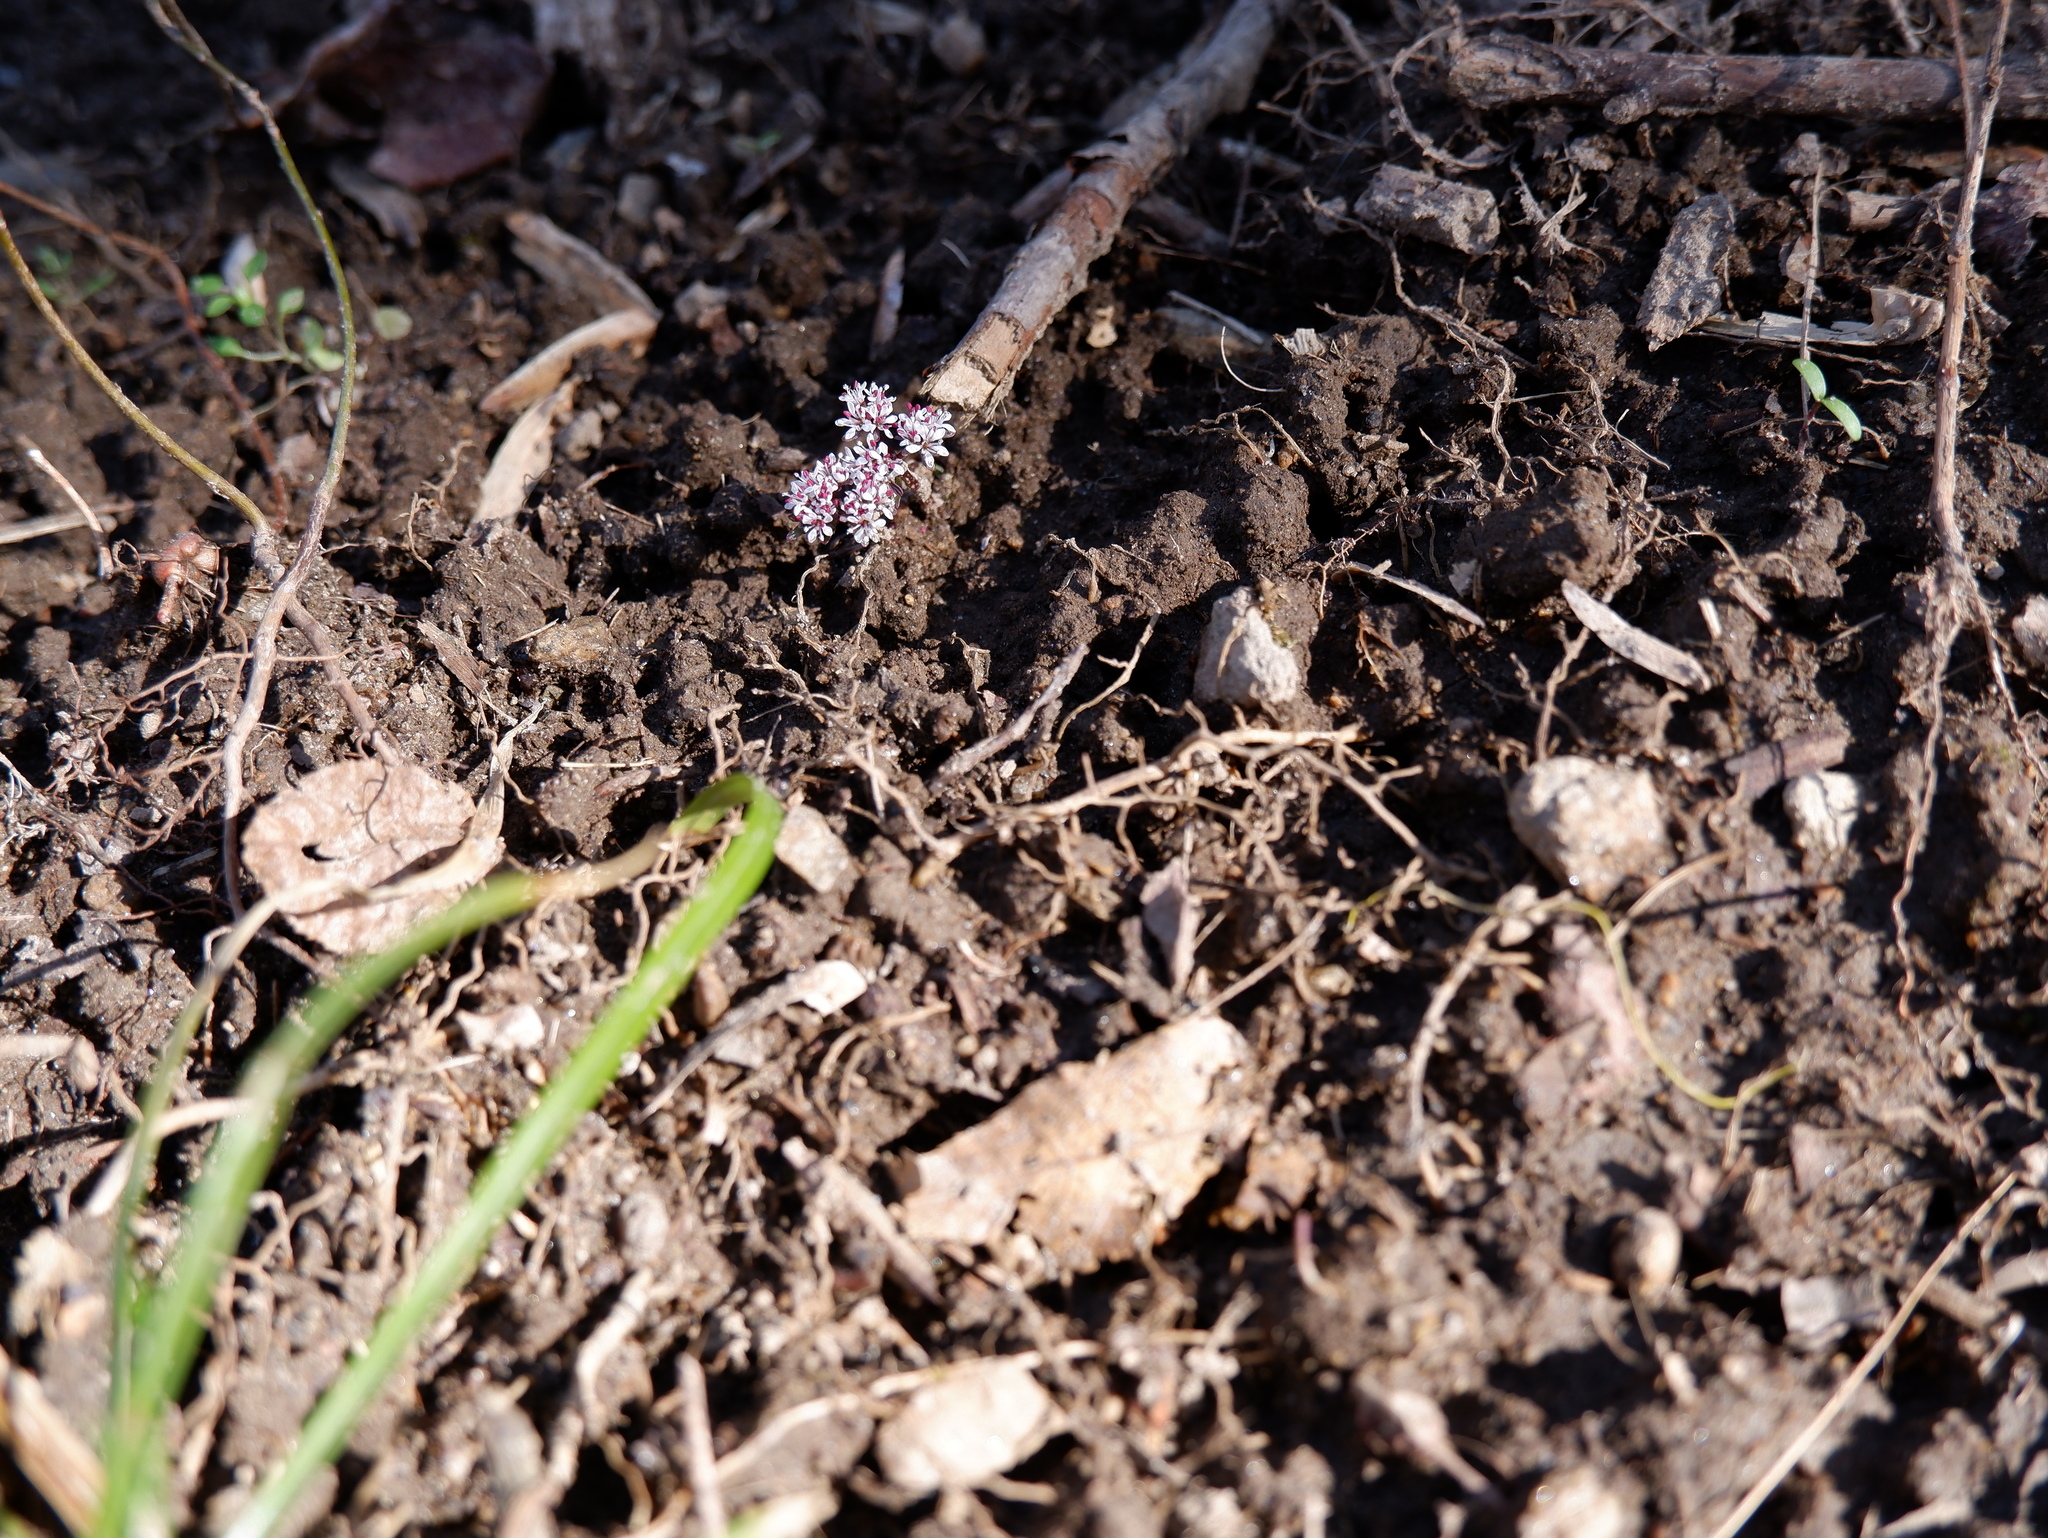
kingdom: Plantae
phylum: Tracheophyta
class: Magnoliopsida
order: Apiales
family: Apiaceae
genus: Erigenia
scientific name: Erigenia bulbosa
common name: Pepper-and-salt
